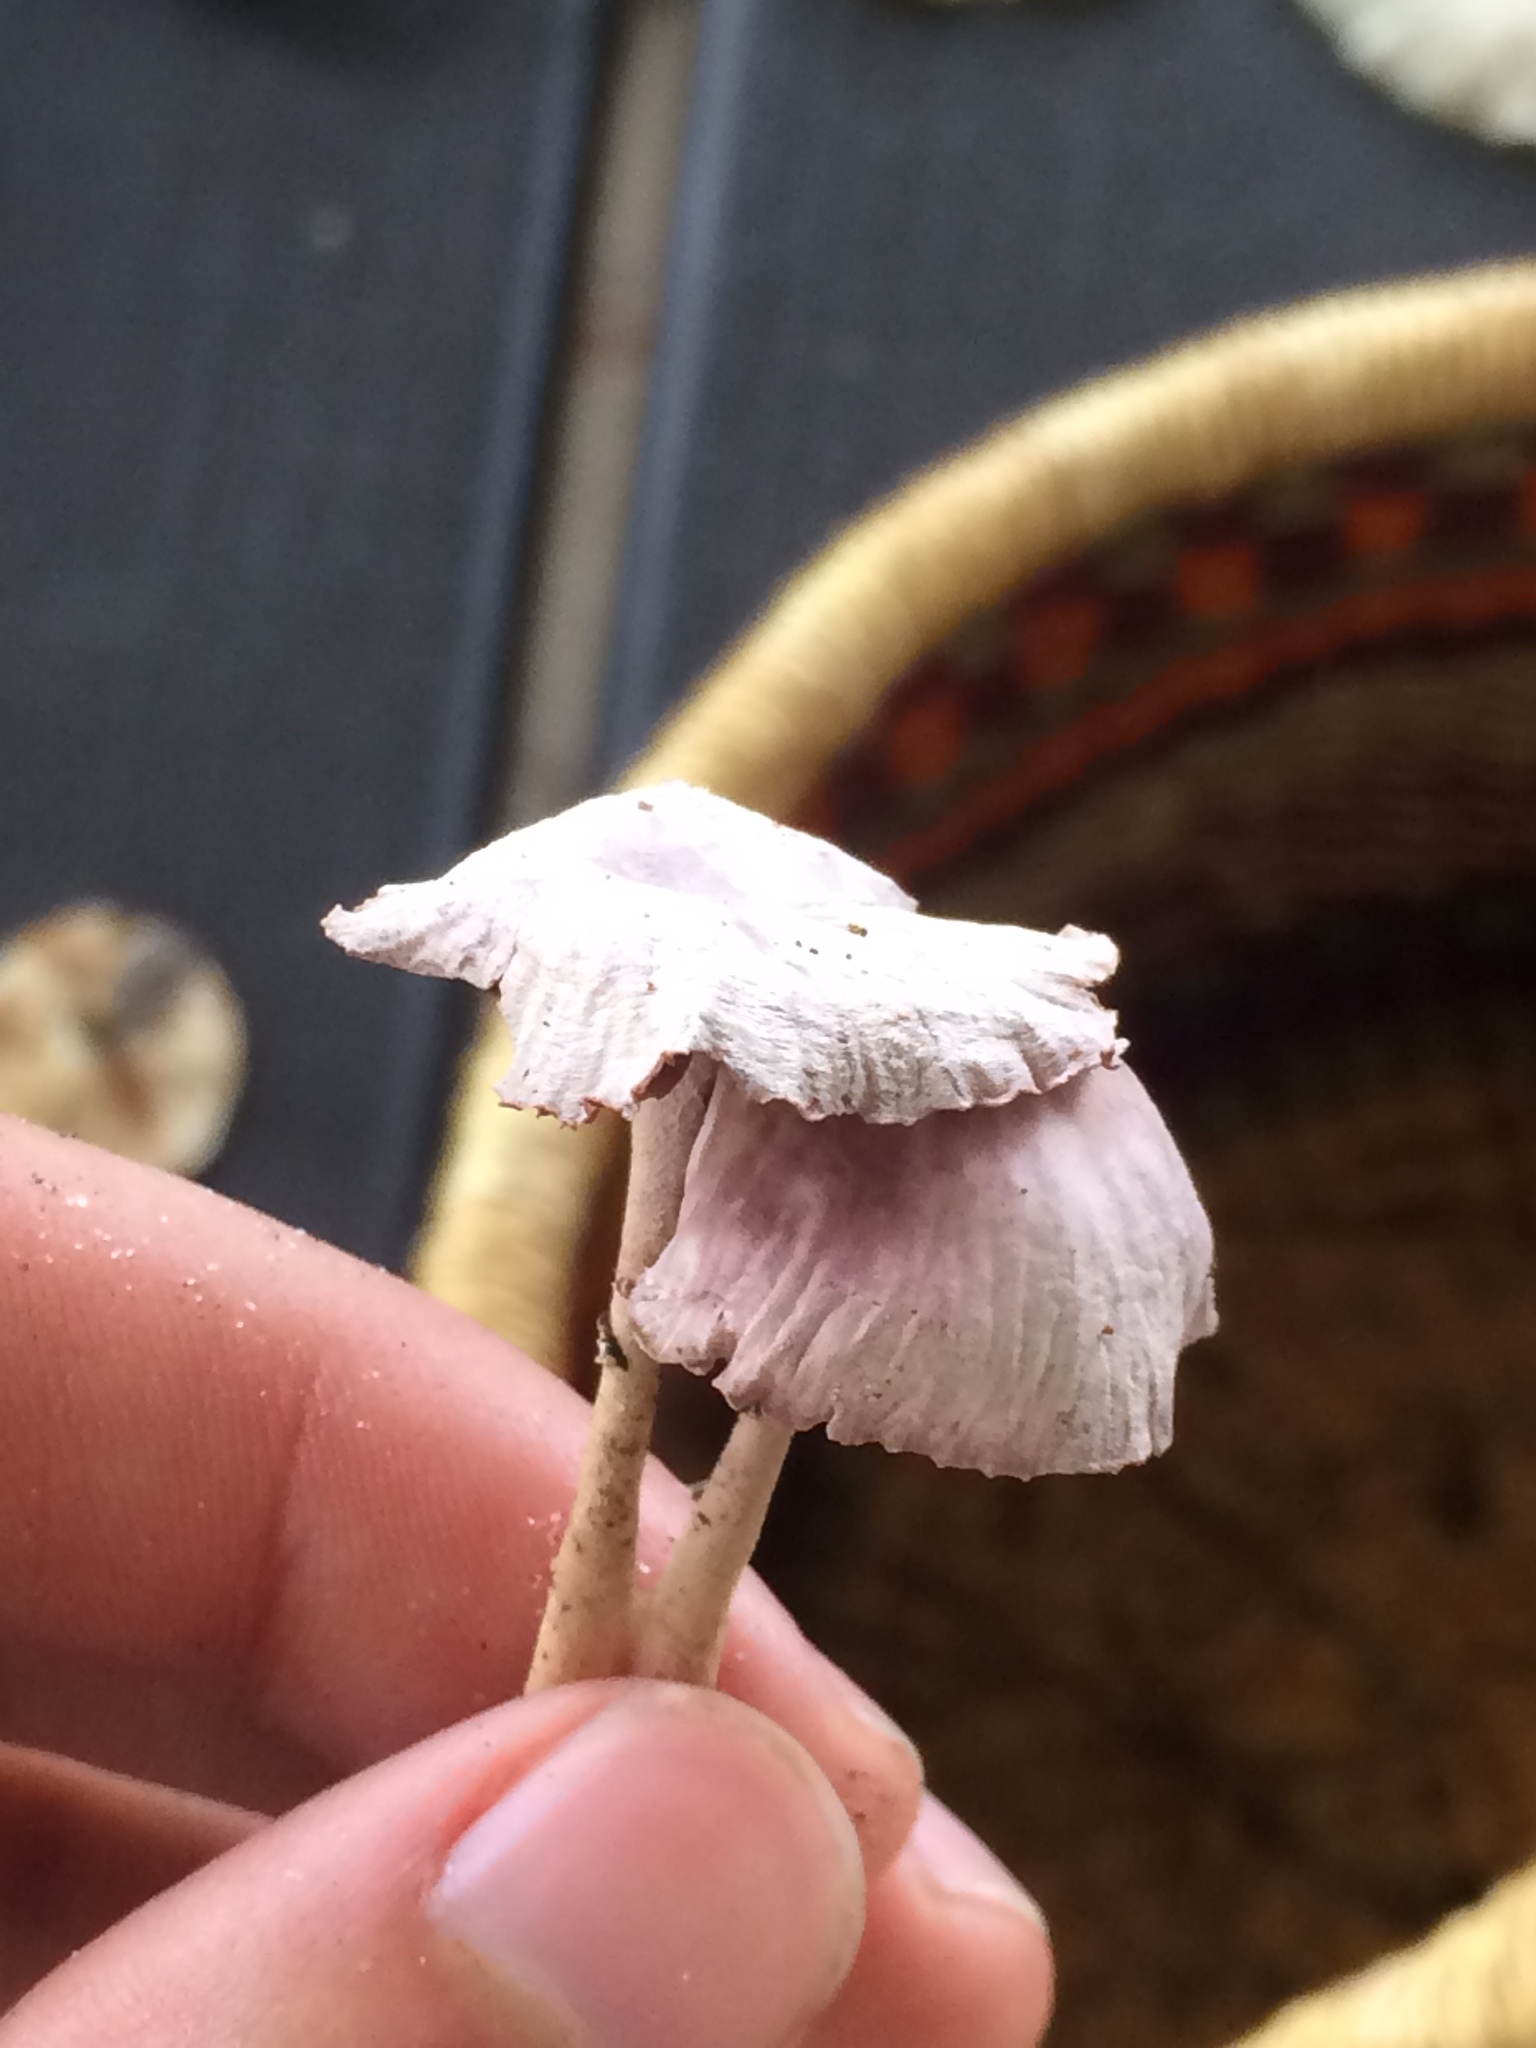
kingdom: Fungi
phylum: Basidiomycota
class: Agaricomycetes
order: Agaricales
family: Omphalotaceae
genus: Gymnopus
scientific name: Gymnopus iocephalus
